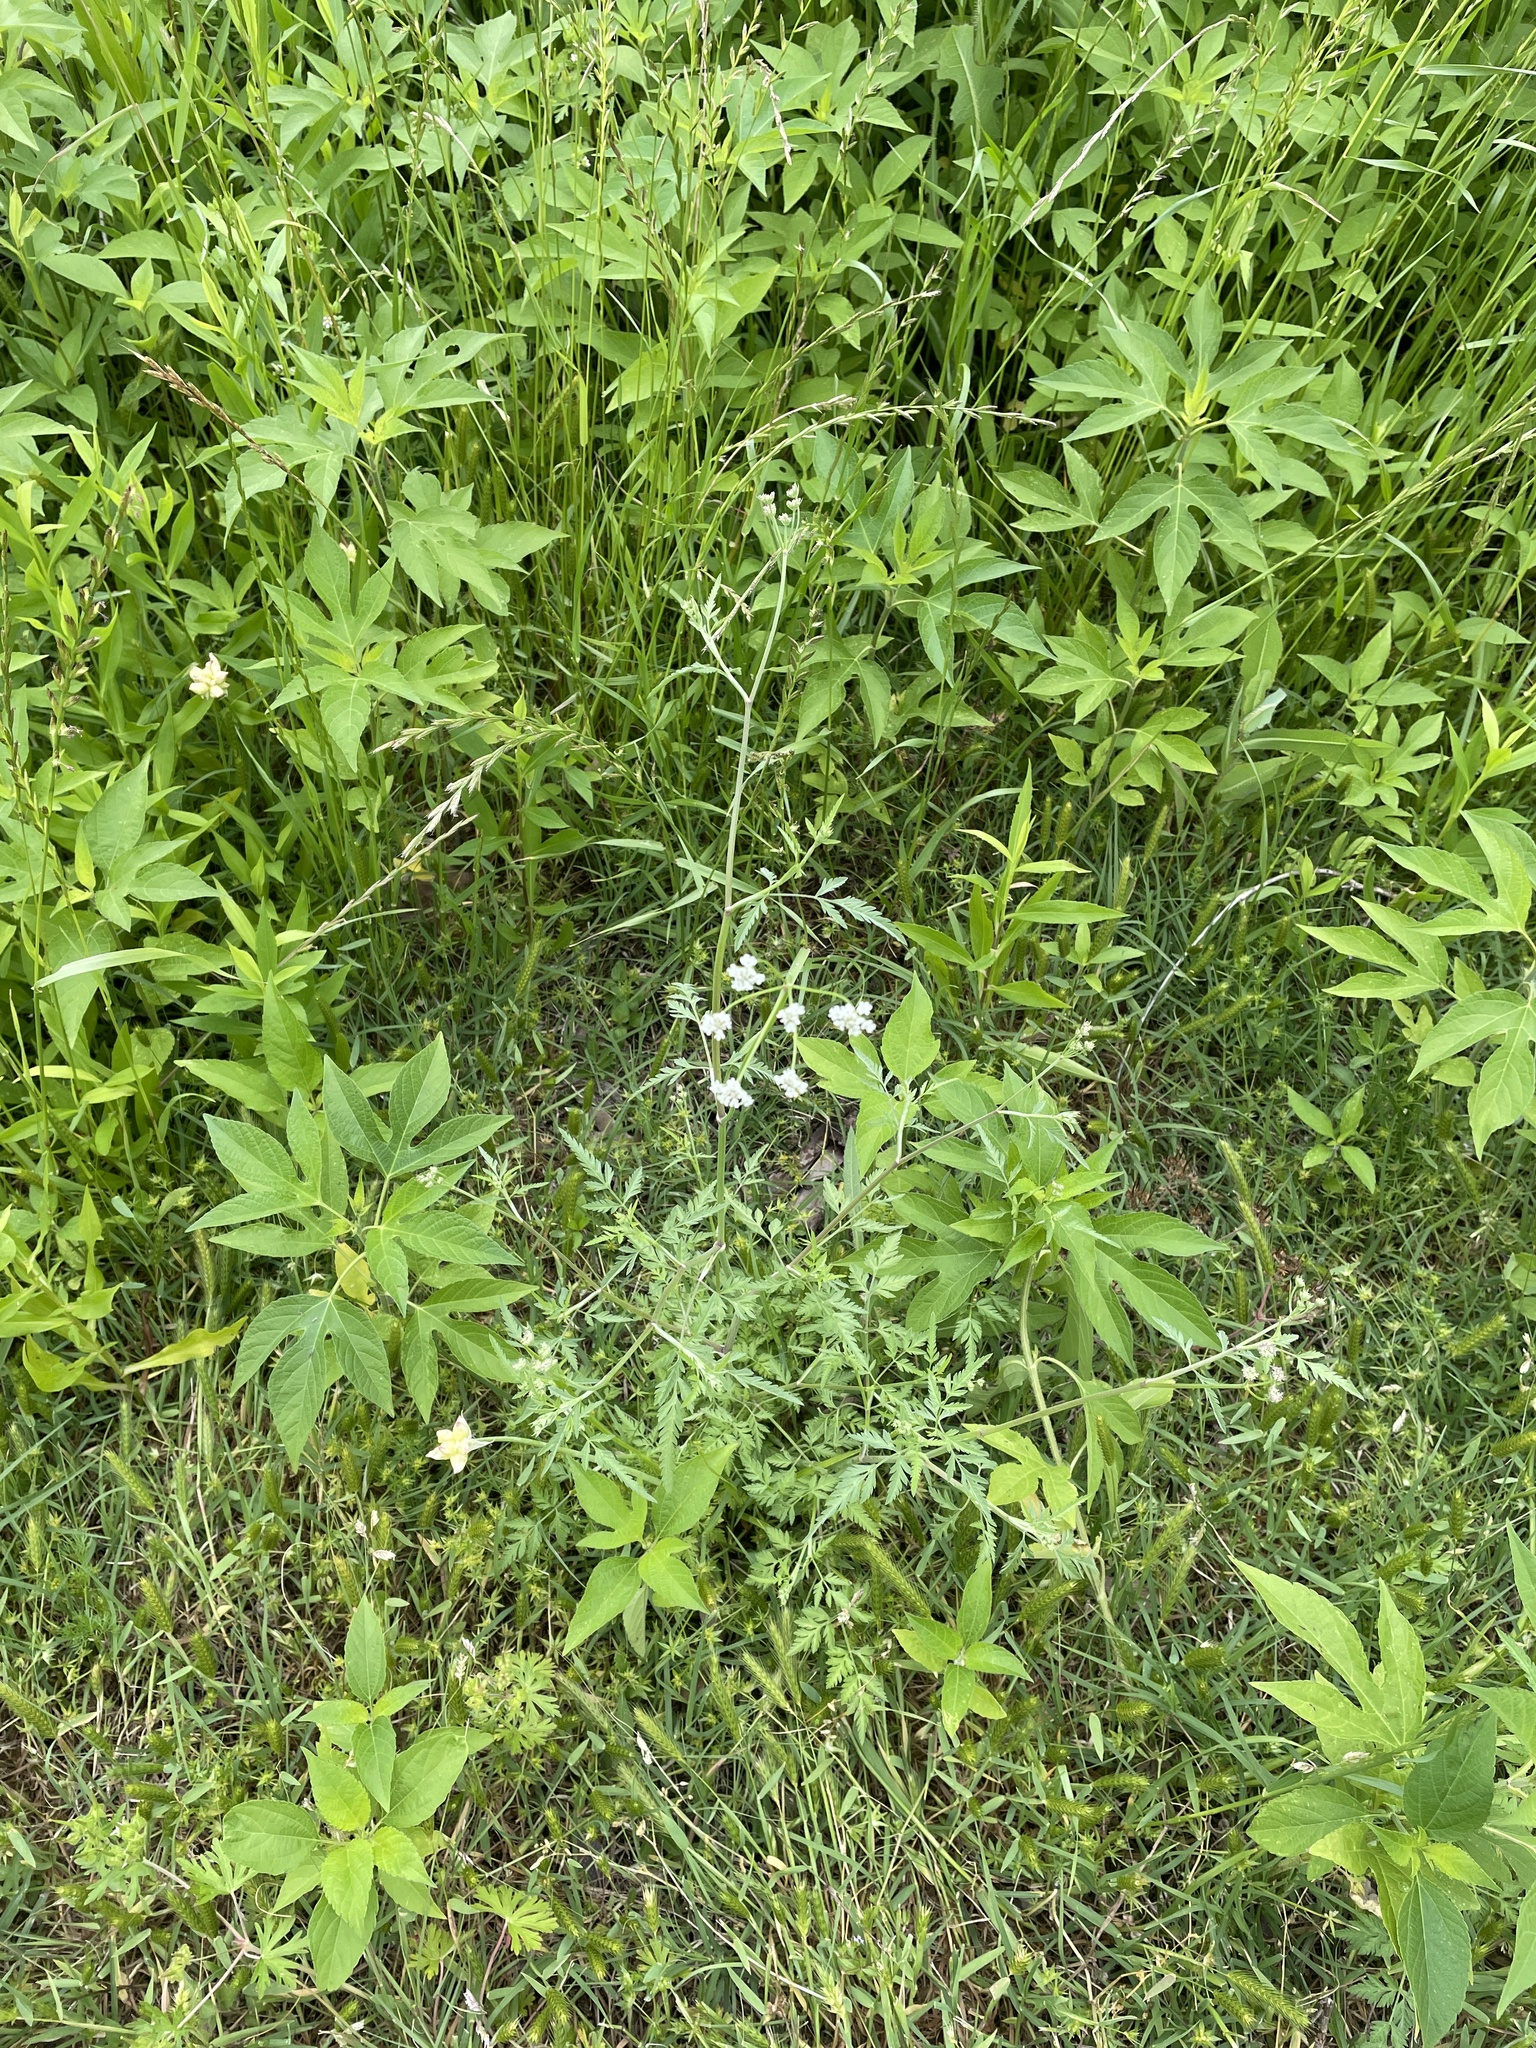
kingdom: Plantae
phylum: Tracheophyta
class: Magnoliopsida
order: Apiales
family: Apiaceae
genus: Torilis
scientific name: Torilis arvensis
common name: Spreading hedge-parsley
